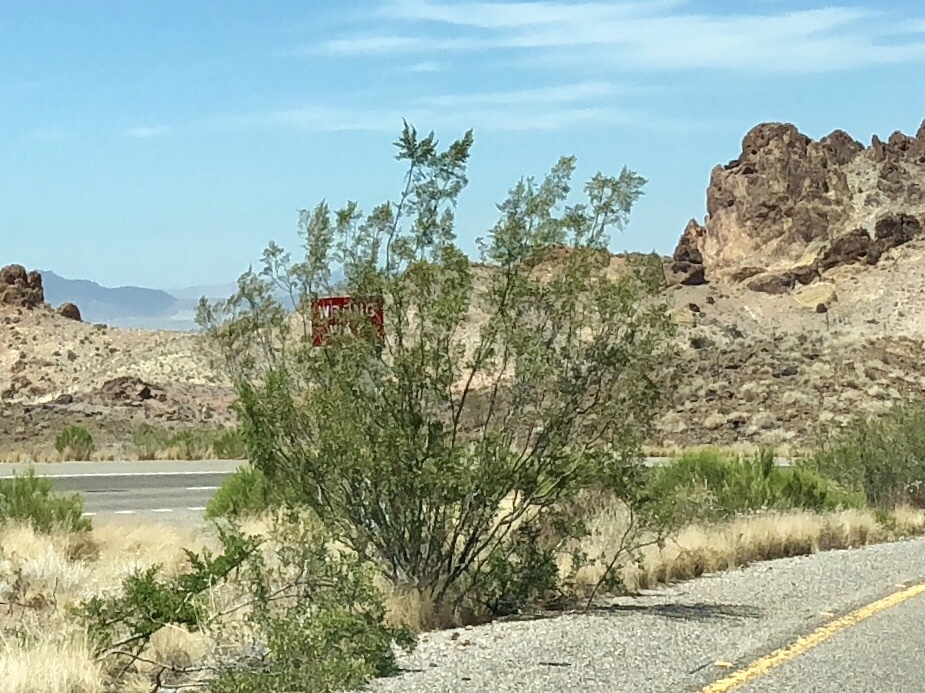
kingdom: Plantae
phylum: Tracheophyta
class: Magnoliopsida
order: Zygophyllales
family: Zygophyllaceae
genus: Larrea
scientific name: Larrea tridentata
